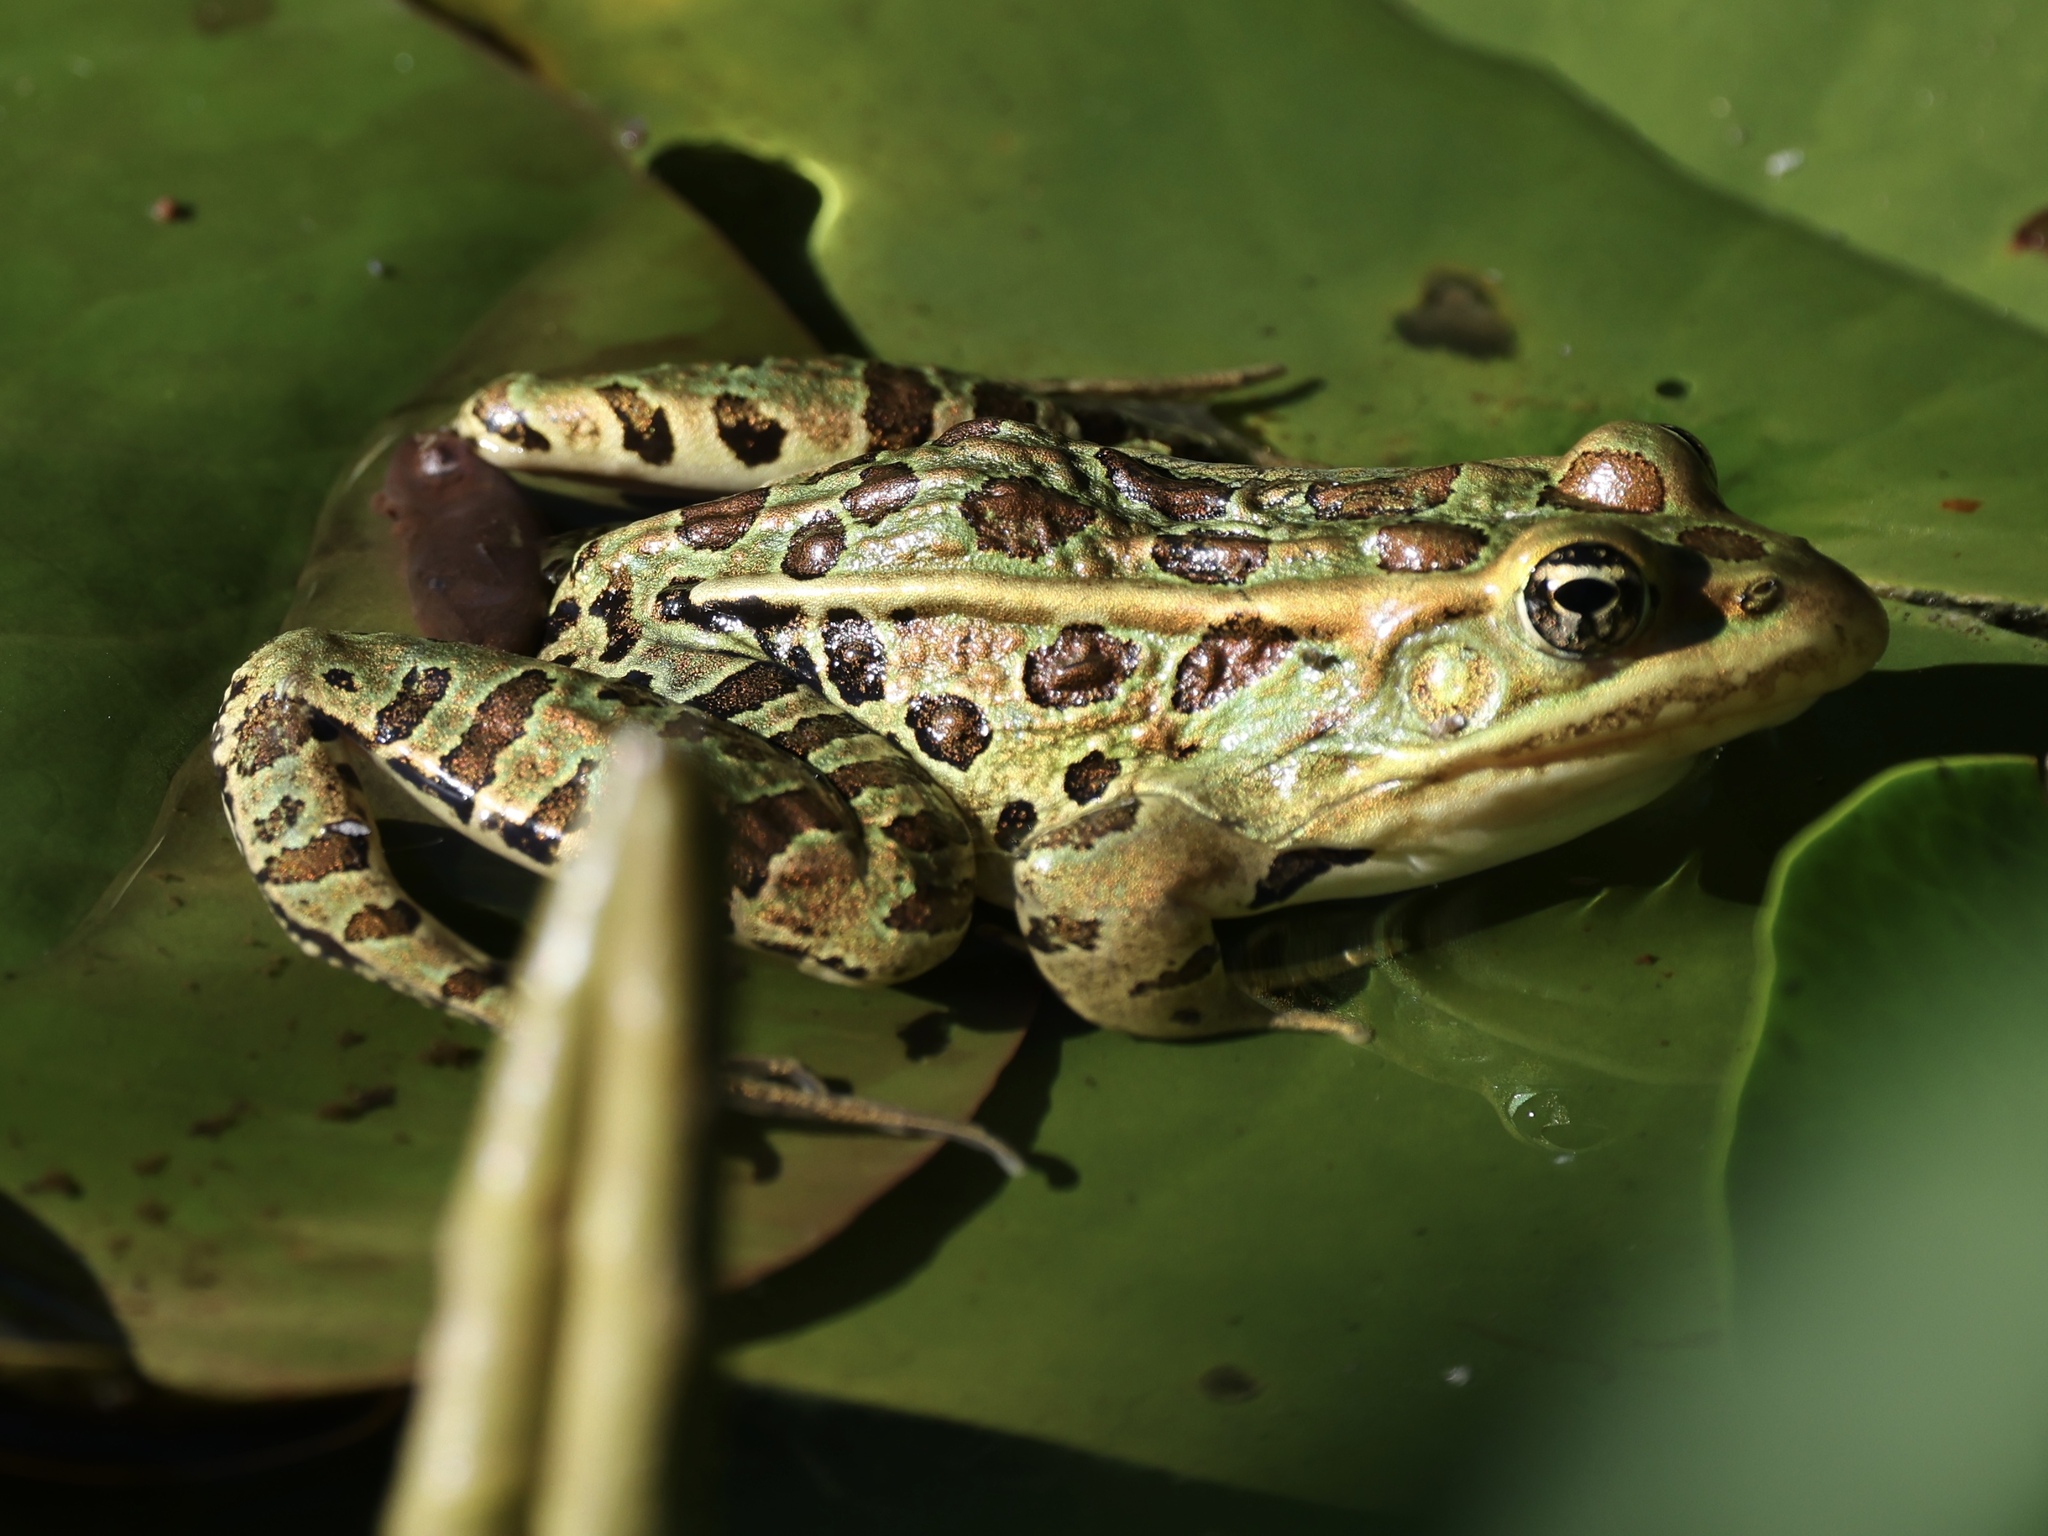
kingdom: Animalia
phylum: Chordata
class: Amphibia
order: Anura
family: Ranidae
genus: Lithobates
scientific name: Lithobates pipiens
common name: Northern leopard frog
